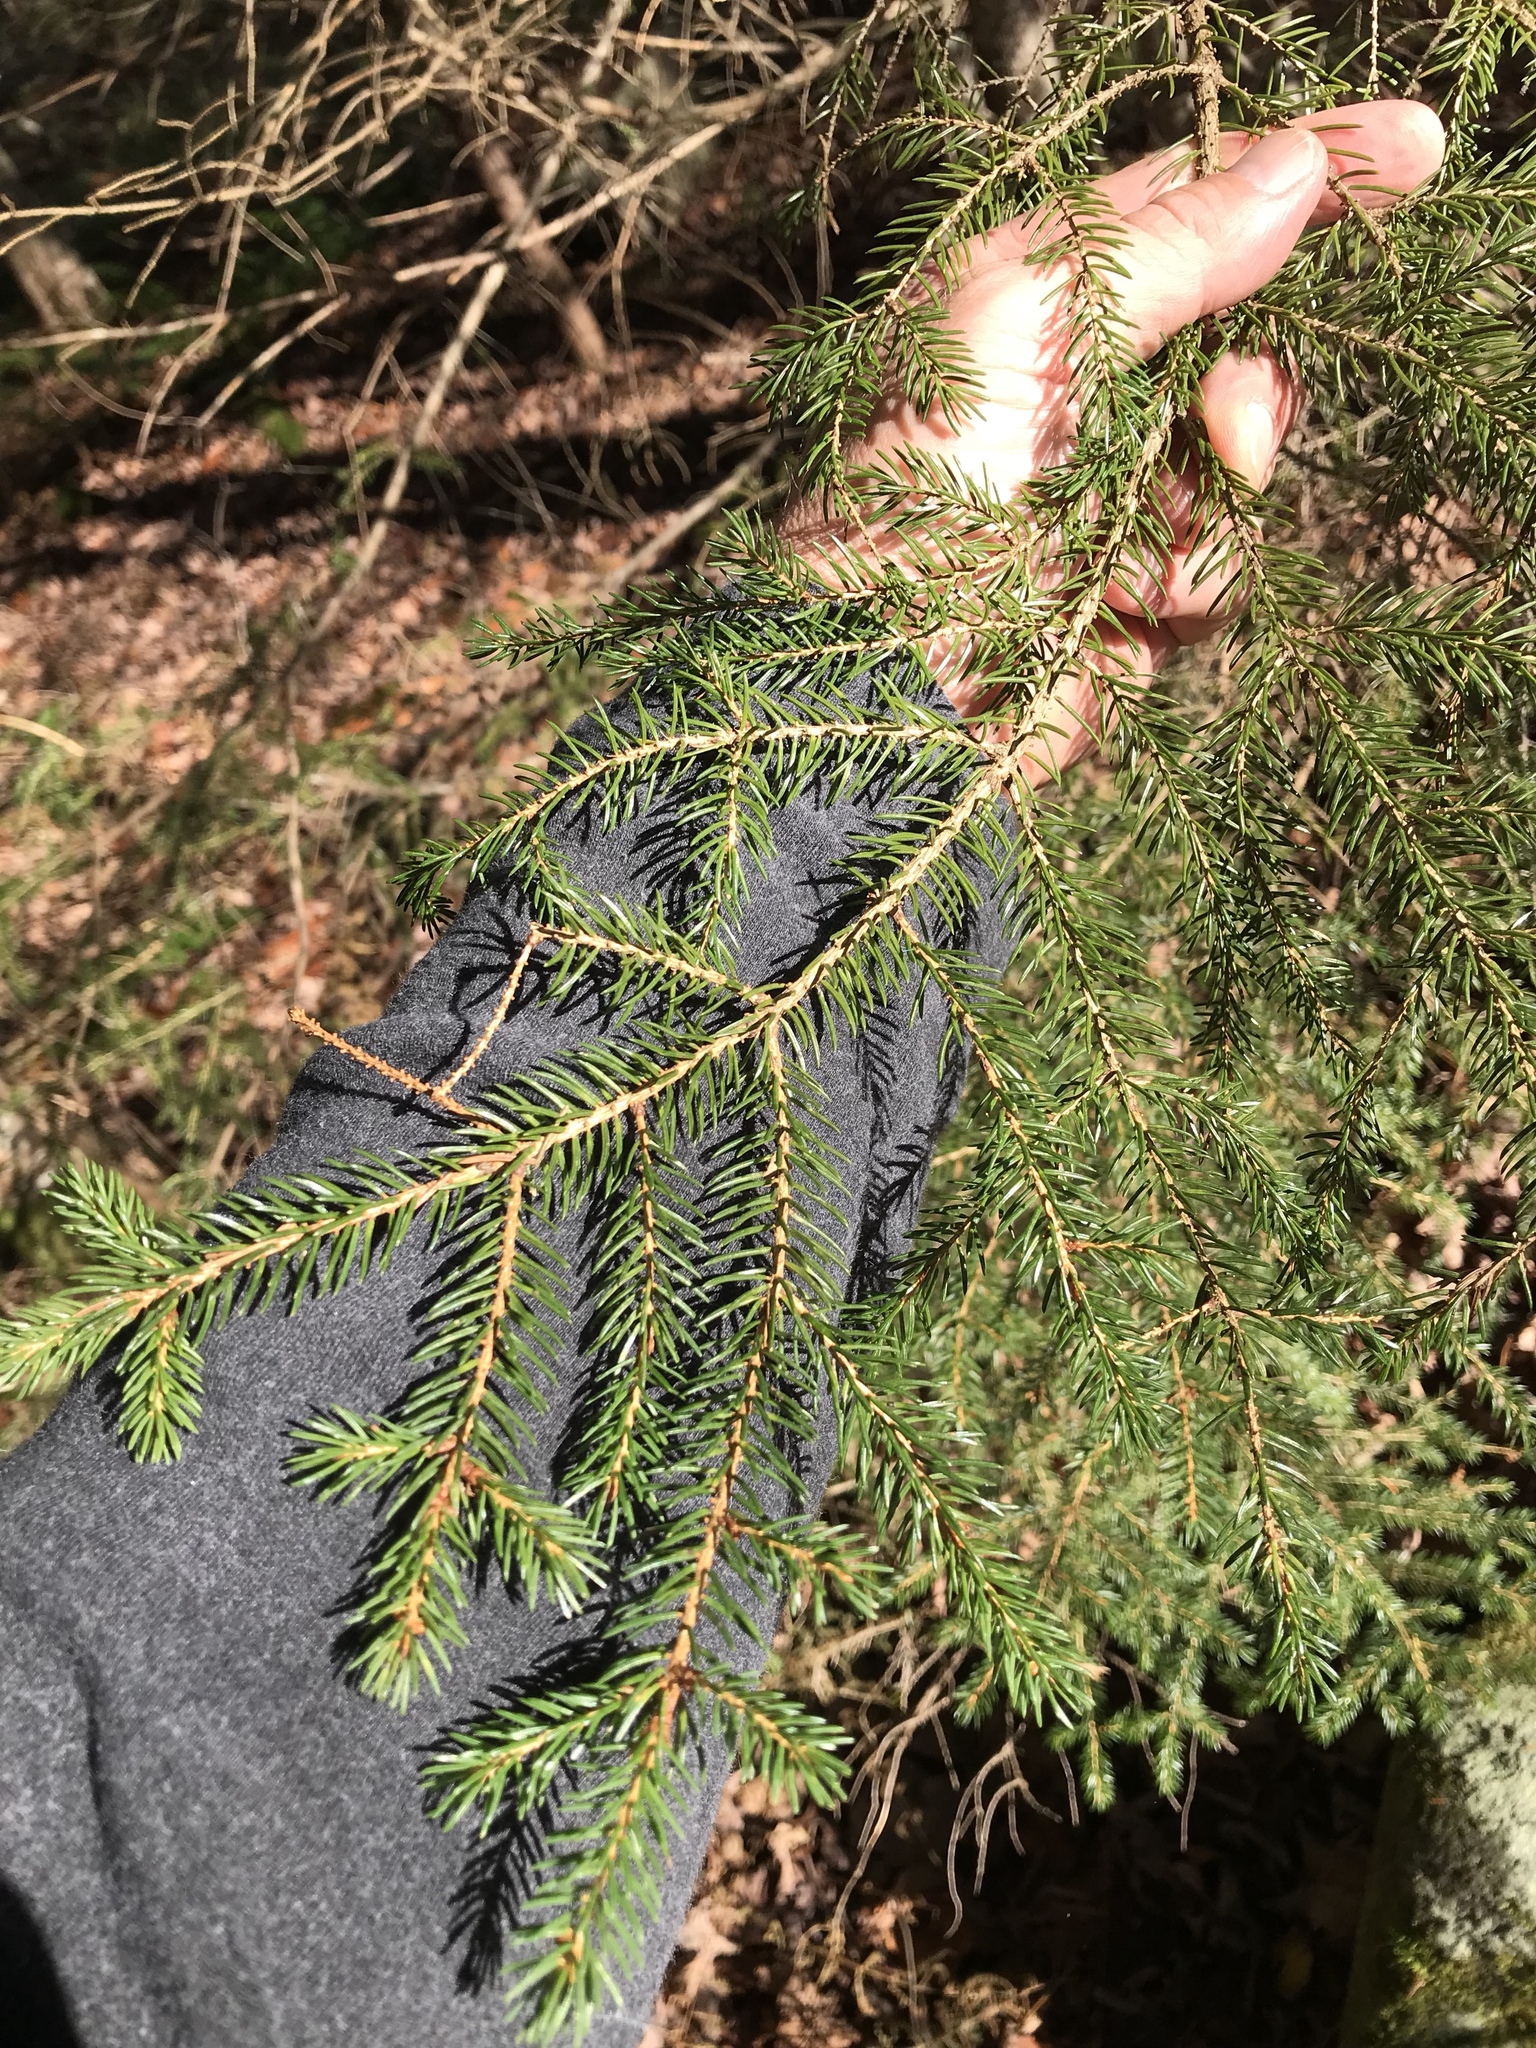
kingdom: Plantae
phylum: Tracheophyta
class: Pinopsida
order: Pinales
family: Pinaceae
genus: Picea
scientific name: Picea rubens
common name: Red spruce
